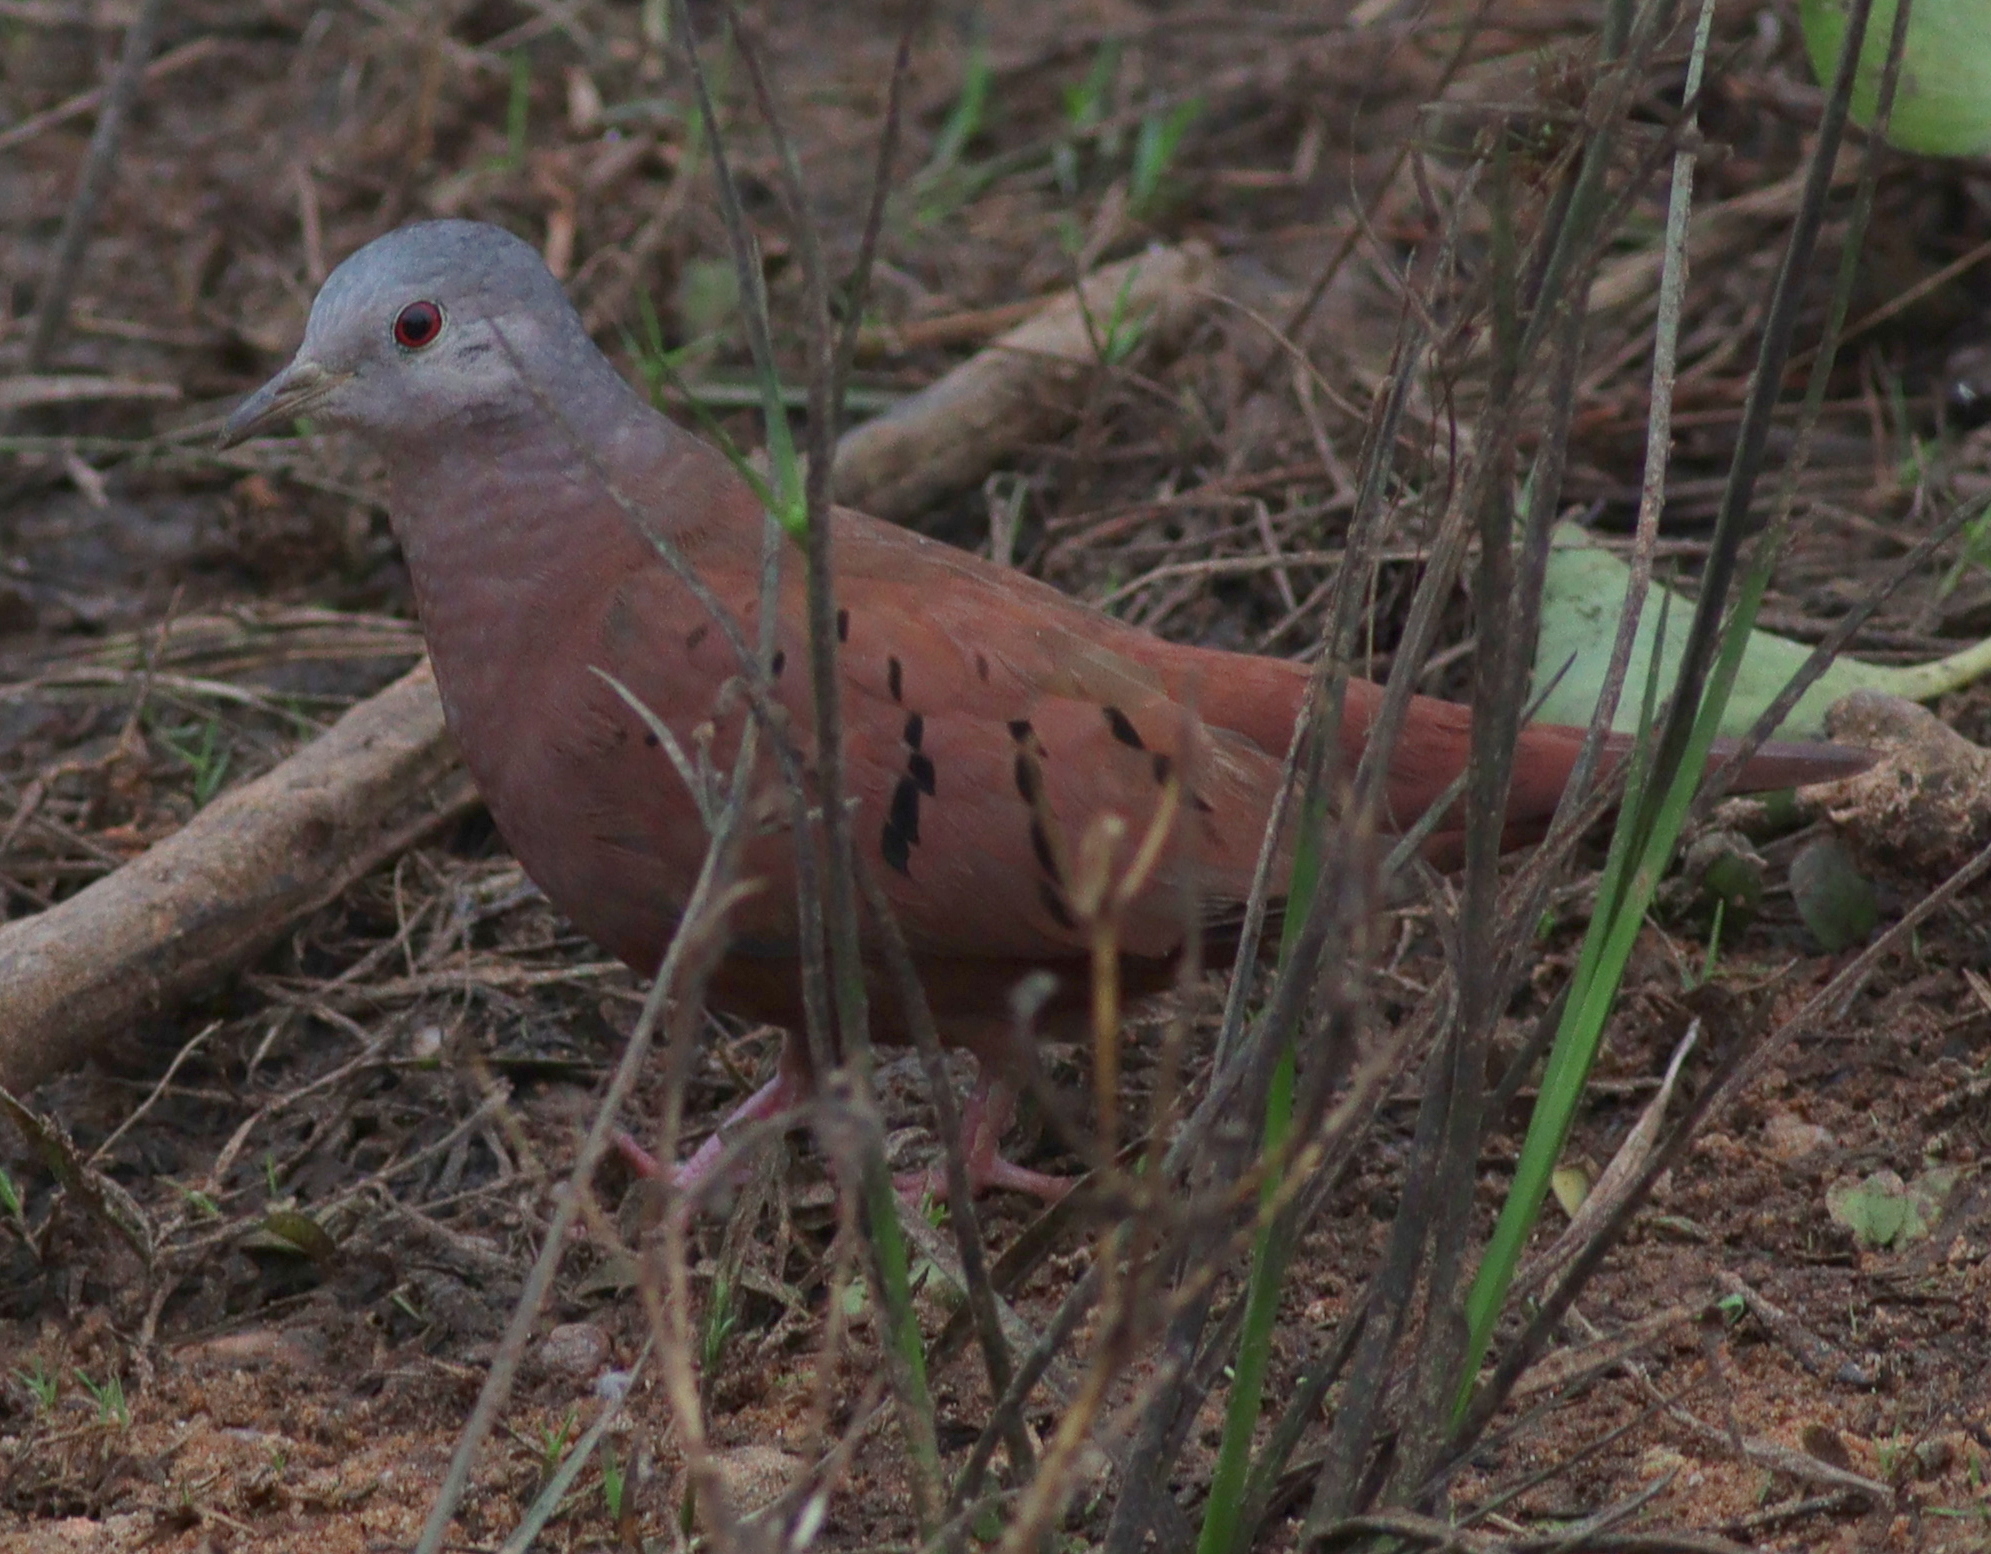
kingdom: Animalia
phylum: Chordata
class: Aves
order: Columbiformes
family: Columbidae
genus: Columbina
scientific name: Columbina talpacoti
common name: Ruddy ground dove
